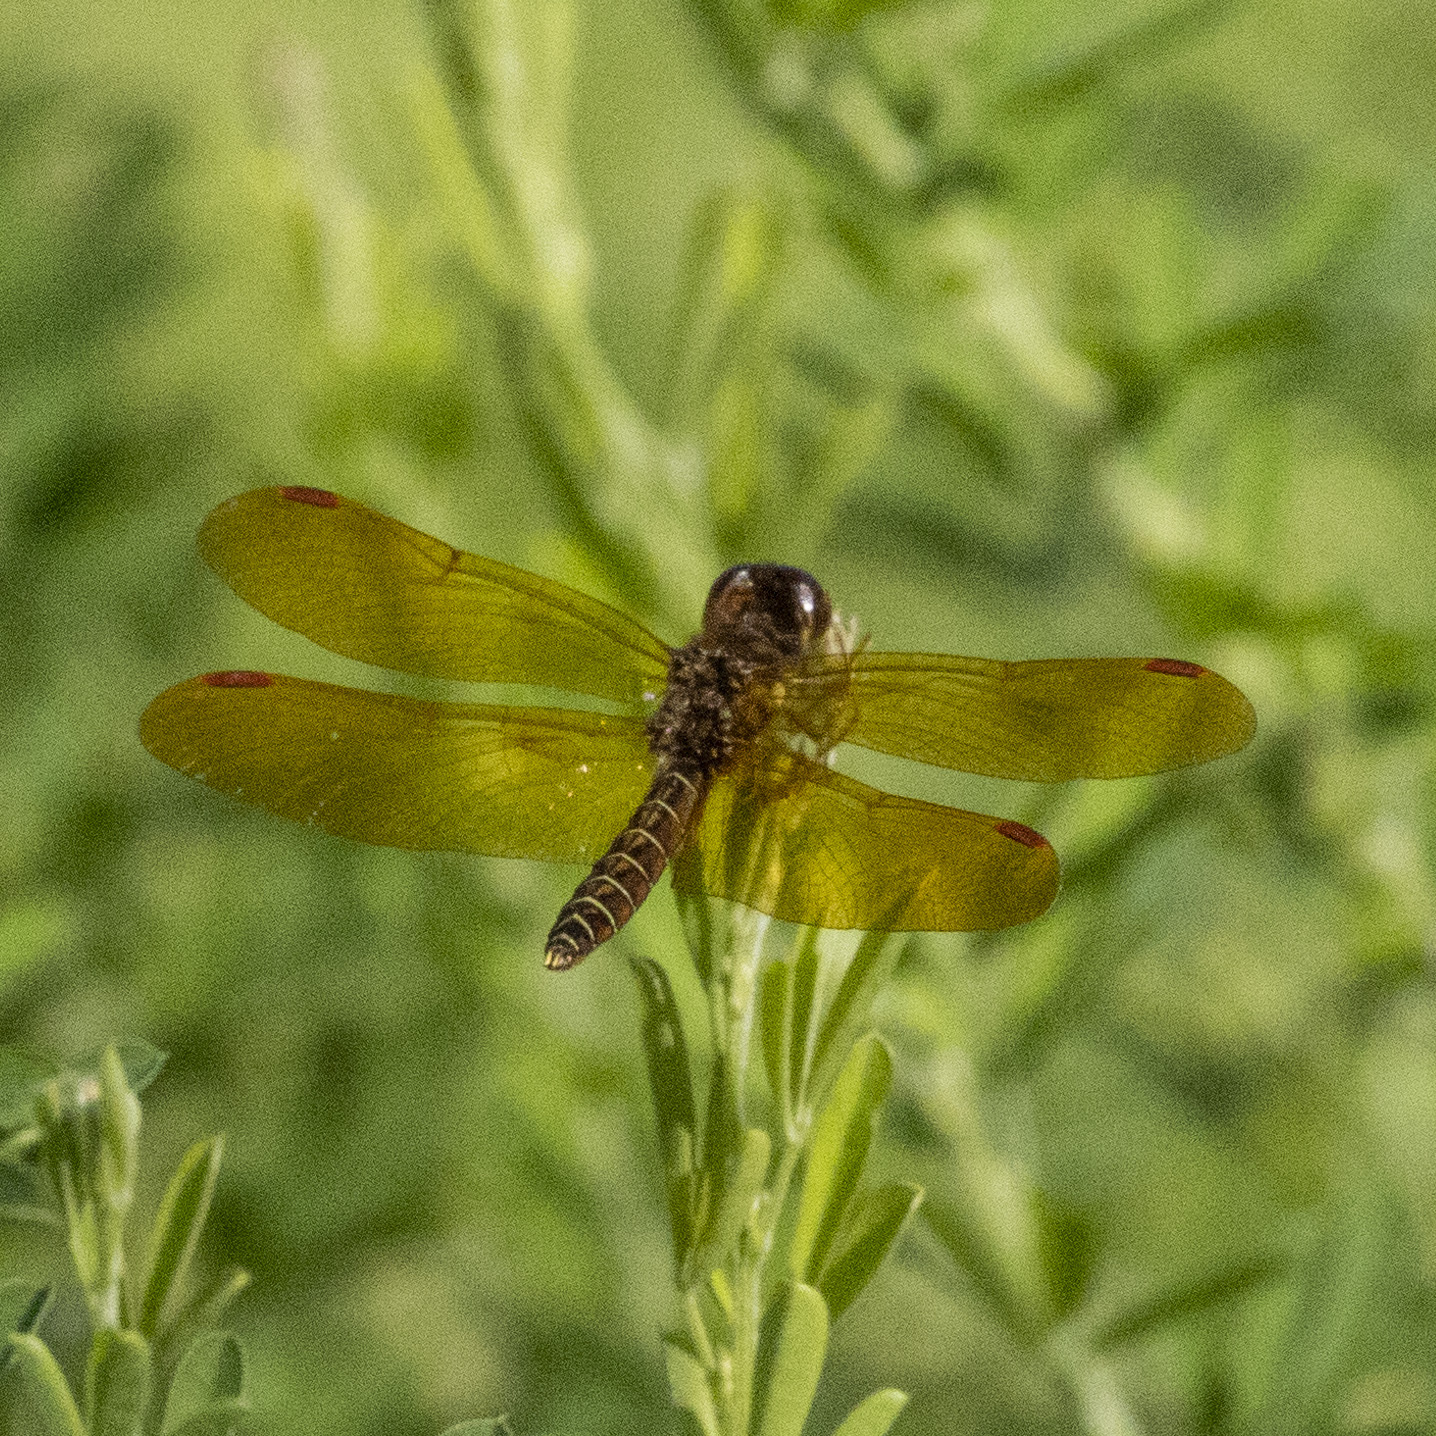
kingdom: Animalia
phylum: Arthropoda
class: Insecta
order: Odonata
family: Libellulidae
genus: Perithemis
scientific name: Perithemis tenera
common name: Eastern amberwing
